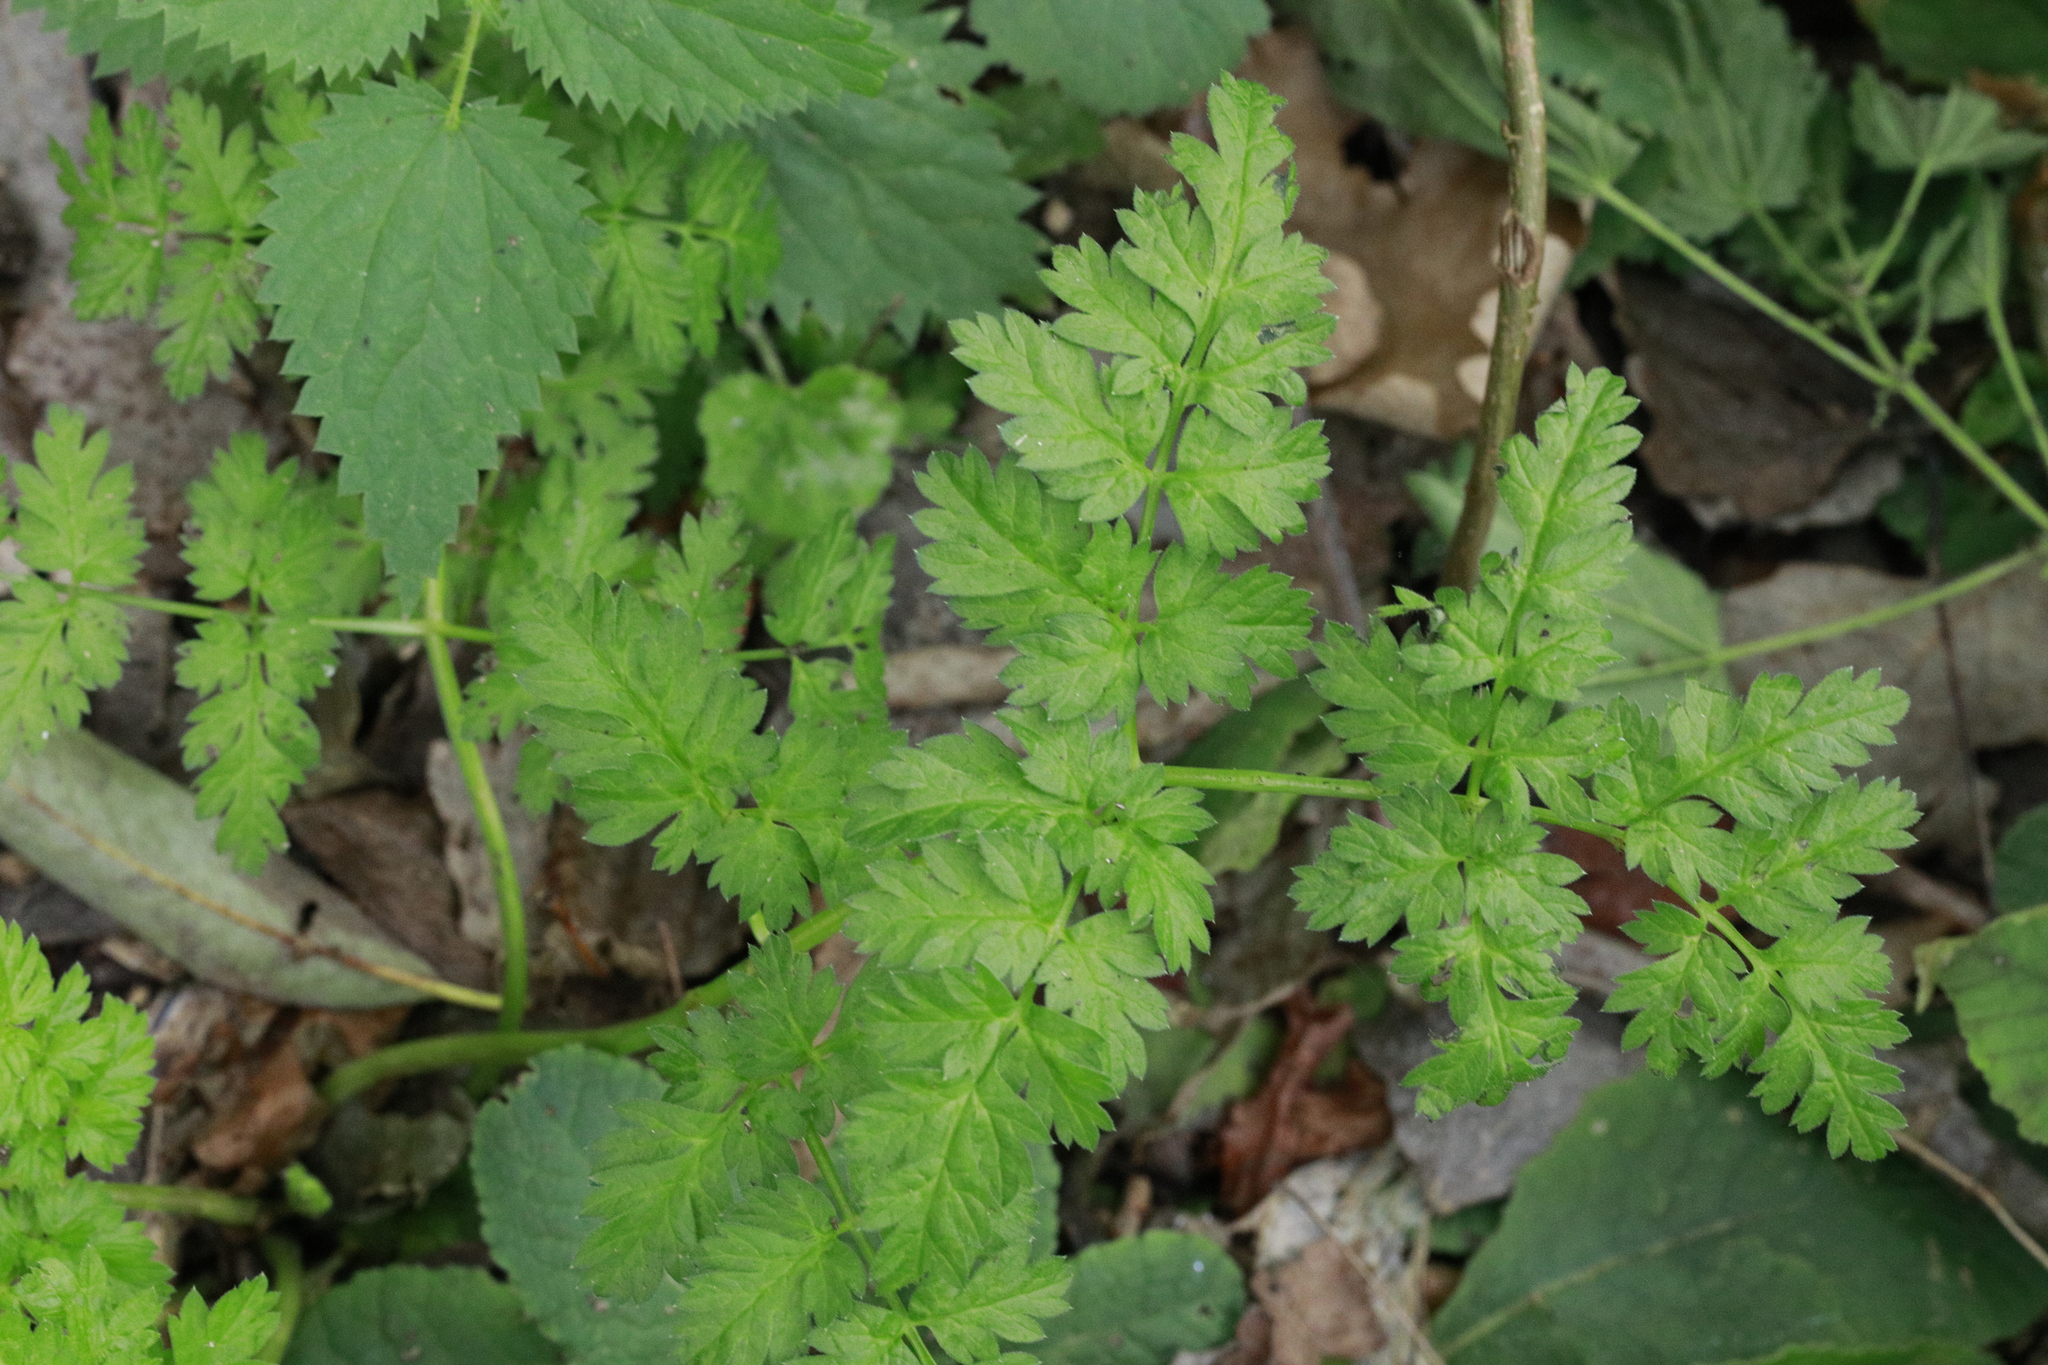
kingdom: Plantae
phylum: Tracheophyta
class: Magnoliopsida
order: Apiales
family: Apiaceae
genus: Anthriscus
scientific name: Anthriscus sylvestris
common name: Cow parsley
